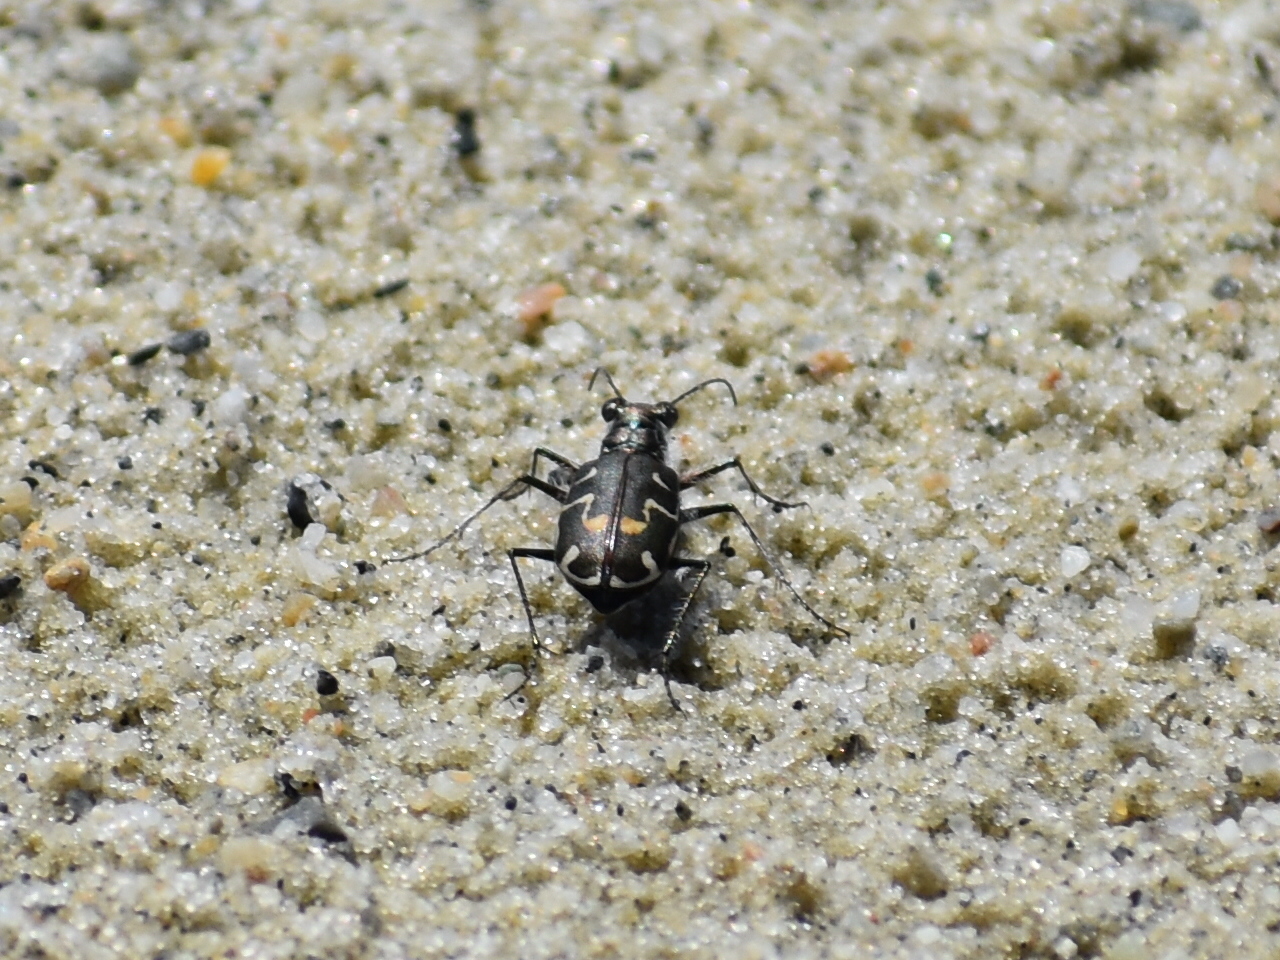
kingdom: Animalia
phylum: Arthropoda
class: Insecta
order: Coleoptera
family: Carabidae
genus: Cicindela
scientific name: Cicindela hirticollis
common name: Hairy-necked tiger beetle
